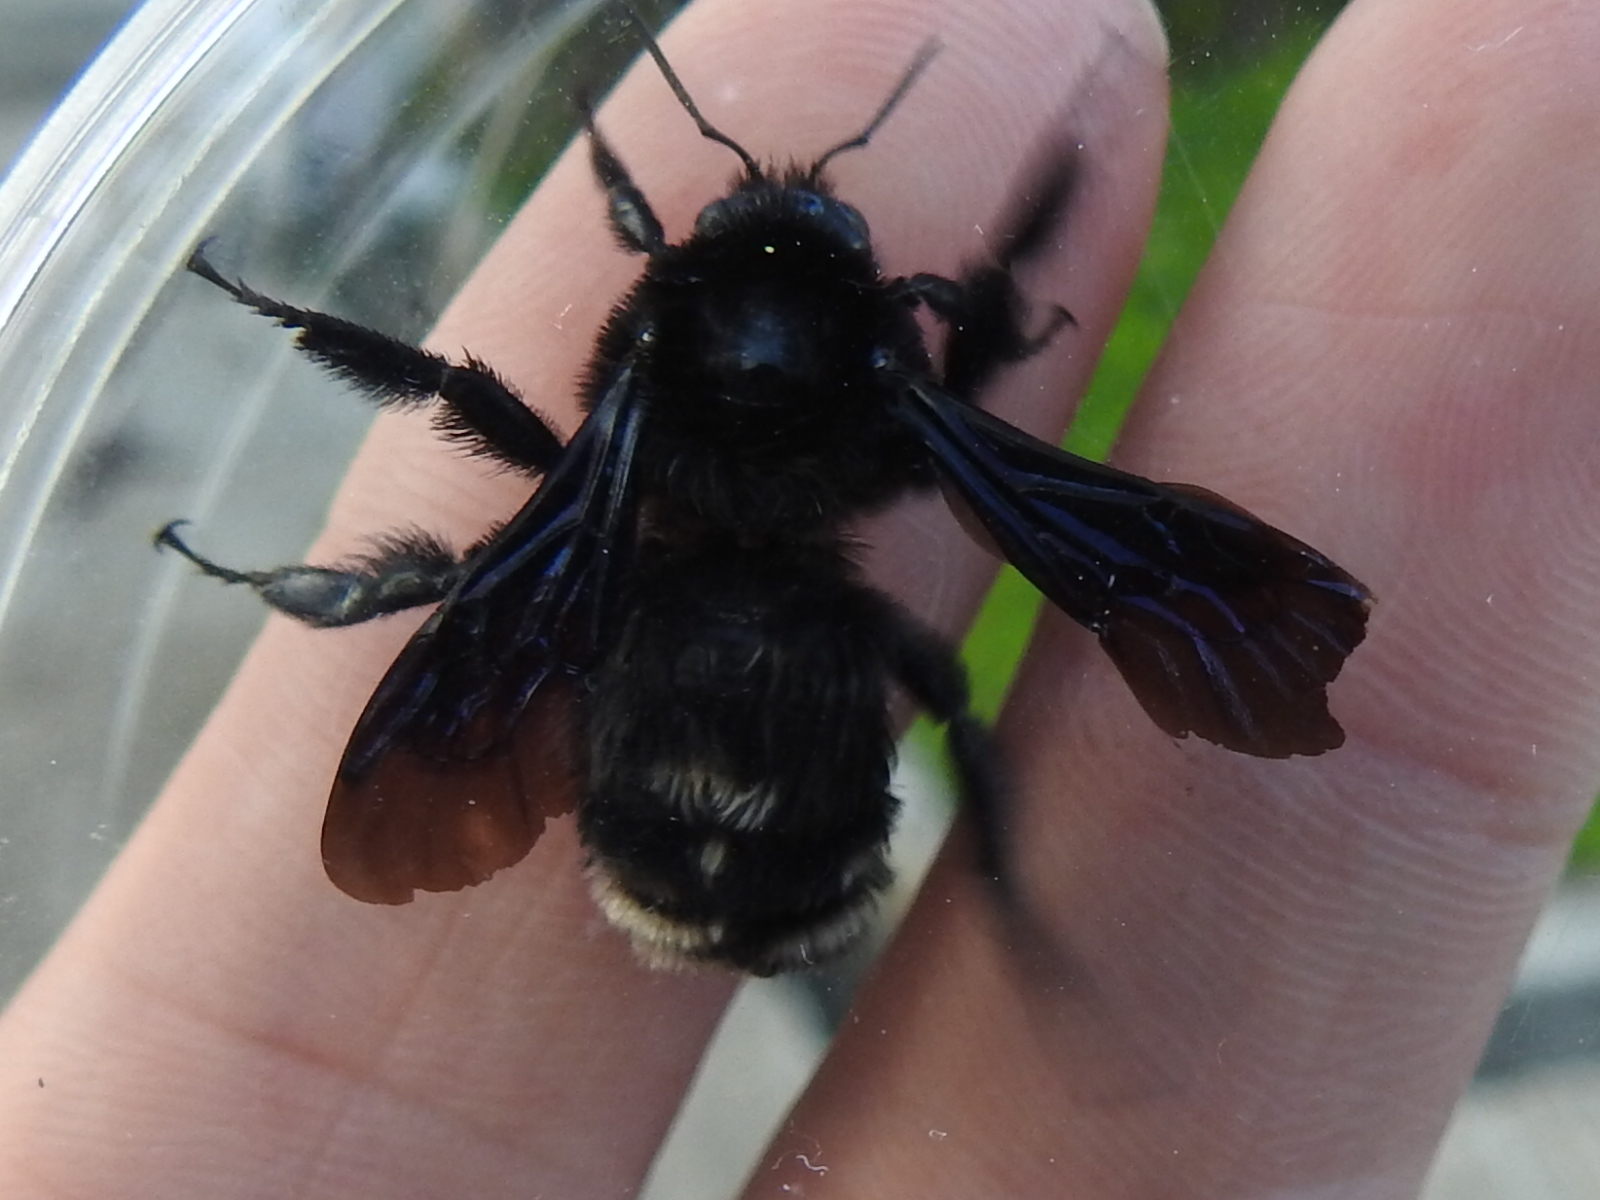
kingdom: Animalia
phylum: Arthropoda
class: Insecta
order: Hymenoptera
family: Apidae
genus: Bombus
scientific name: Bombus pullatus
